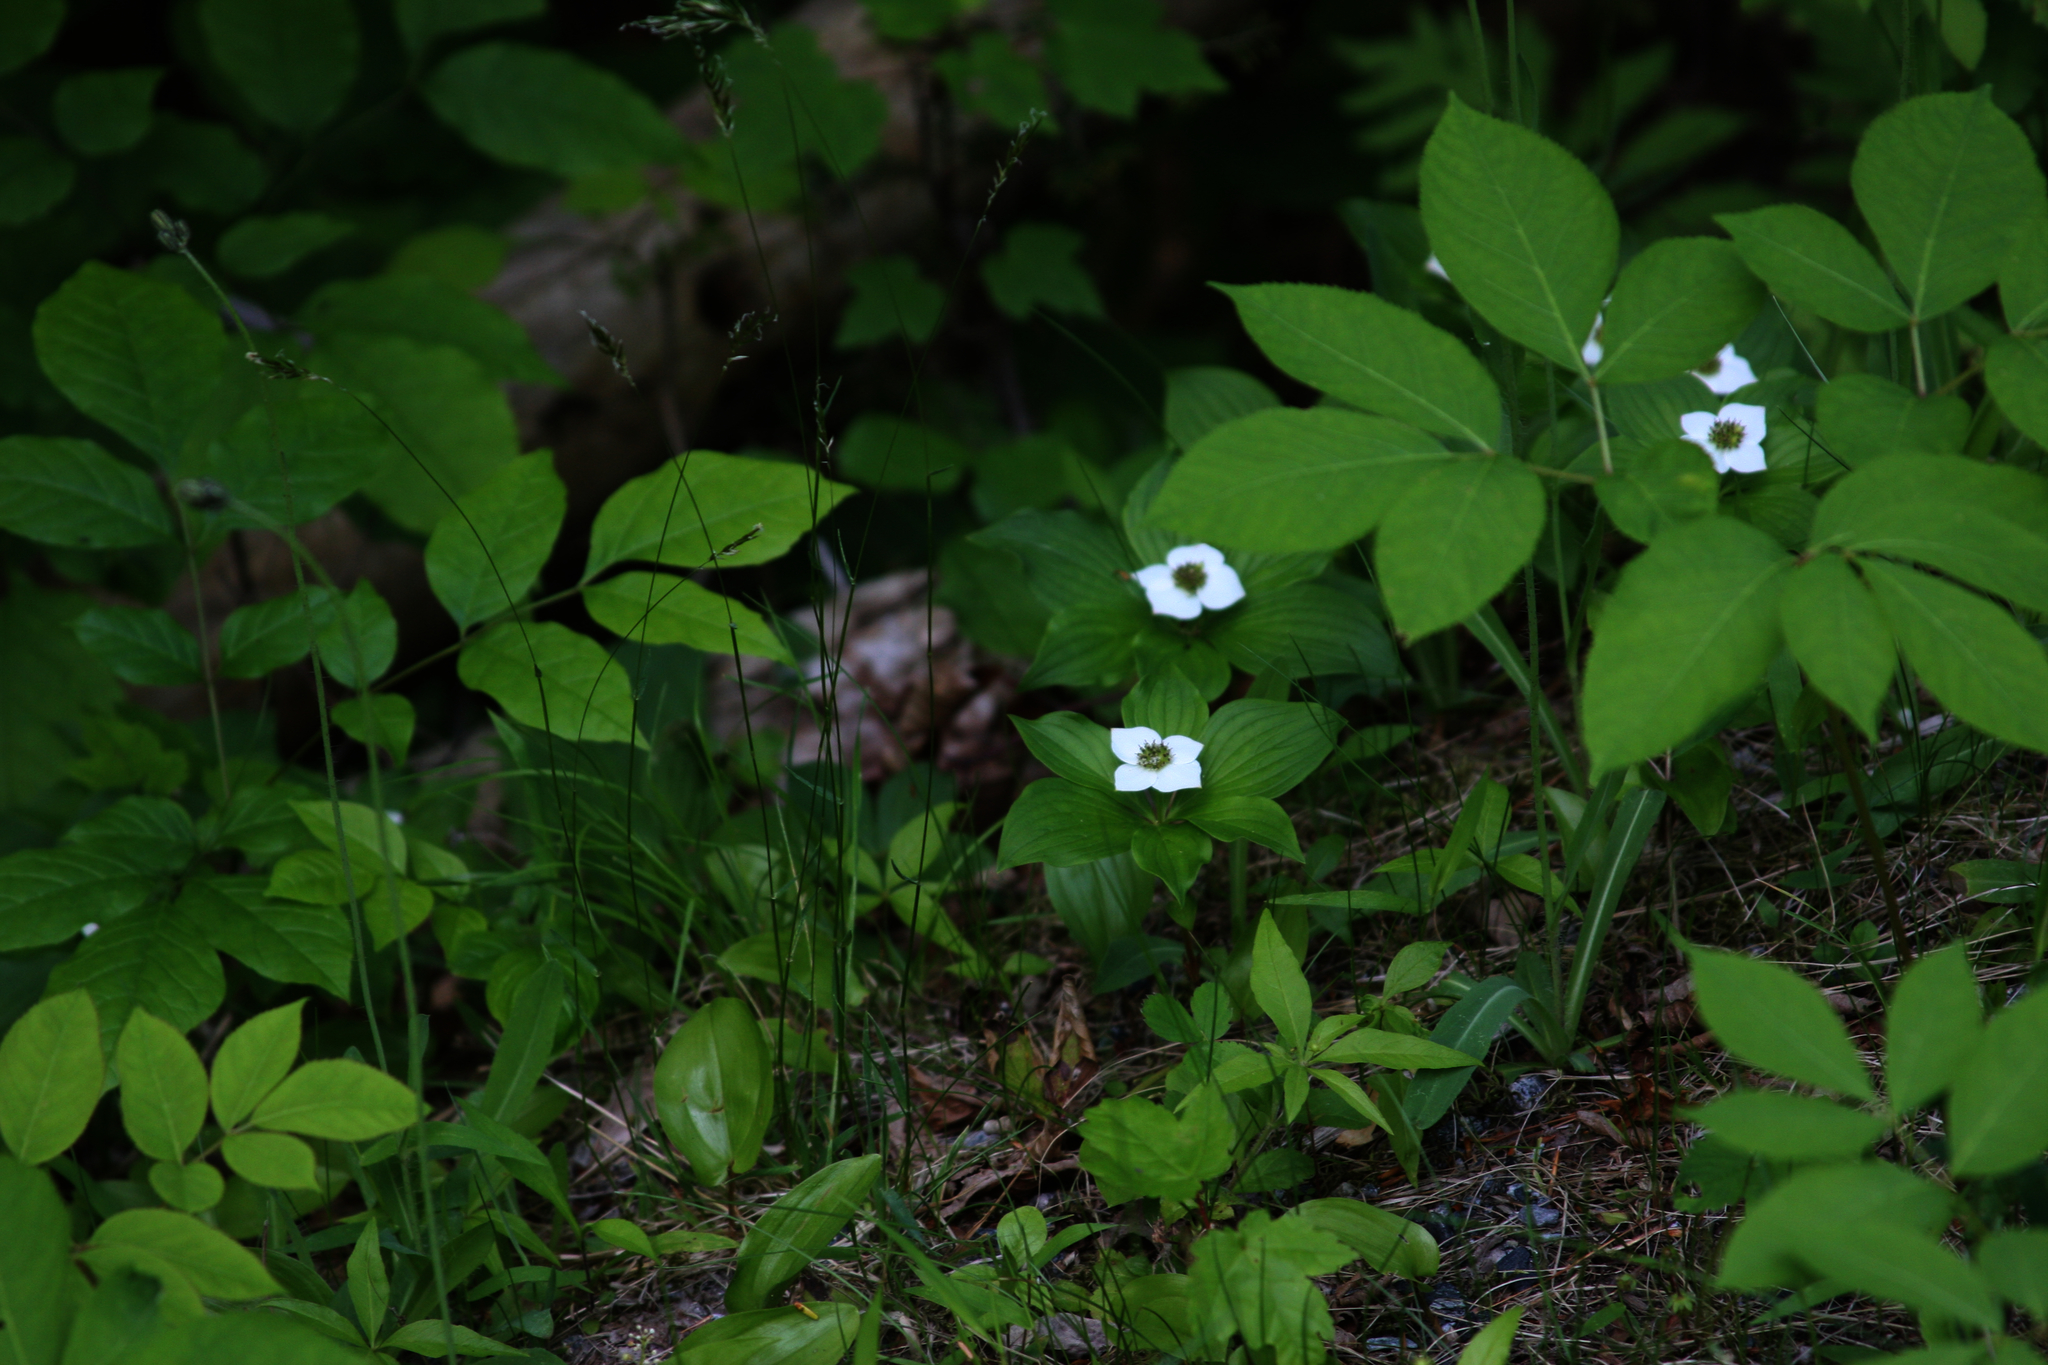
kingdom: Plantae
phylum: Tracheophyta
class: Magnoliopsida
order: Cornales
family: Cornaceae
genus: Cornus
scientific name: Cornus canadensis
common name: Creeping dogwood
